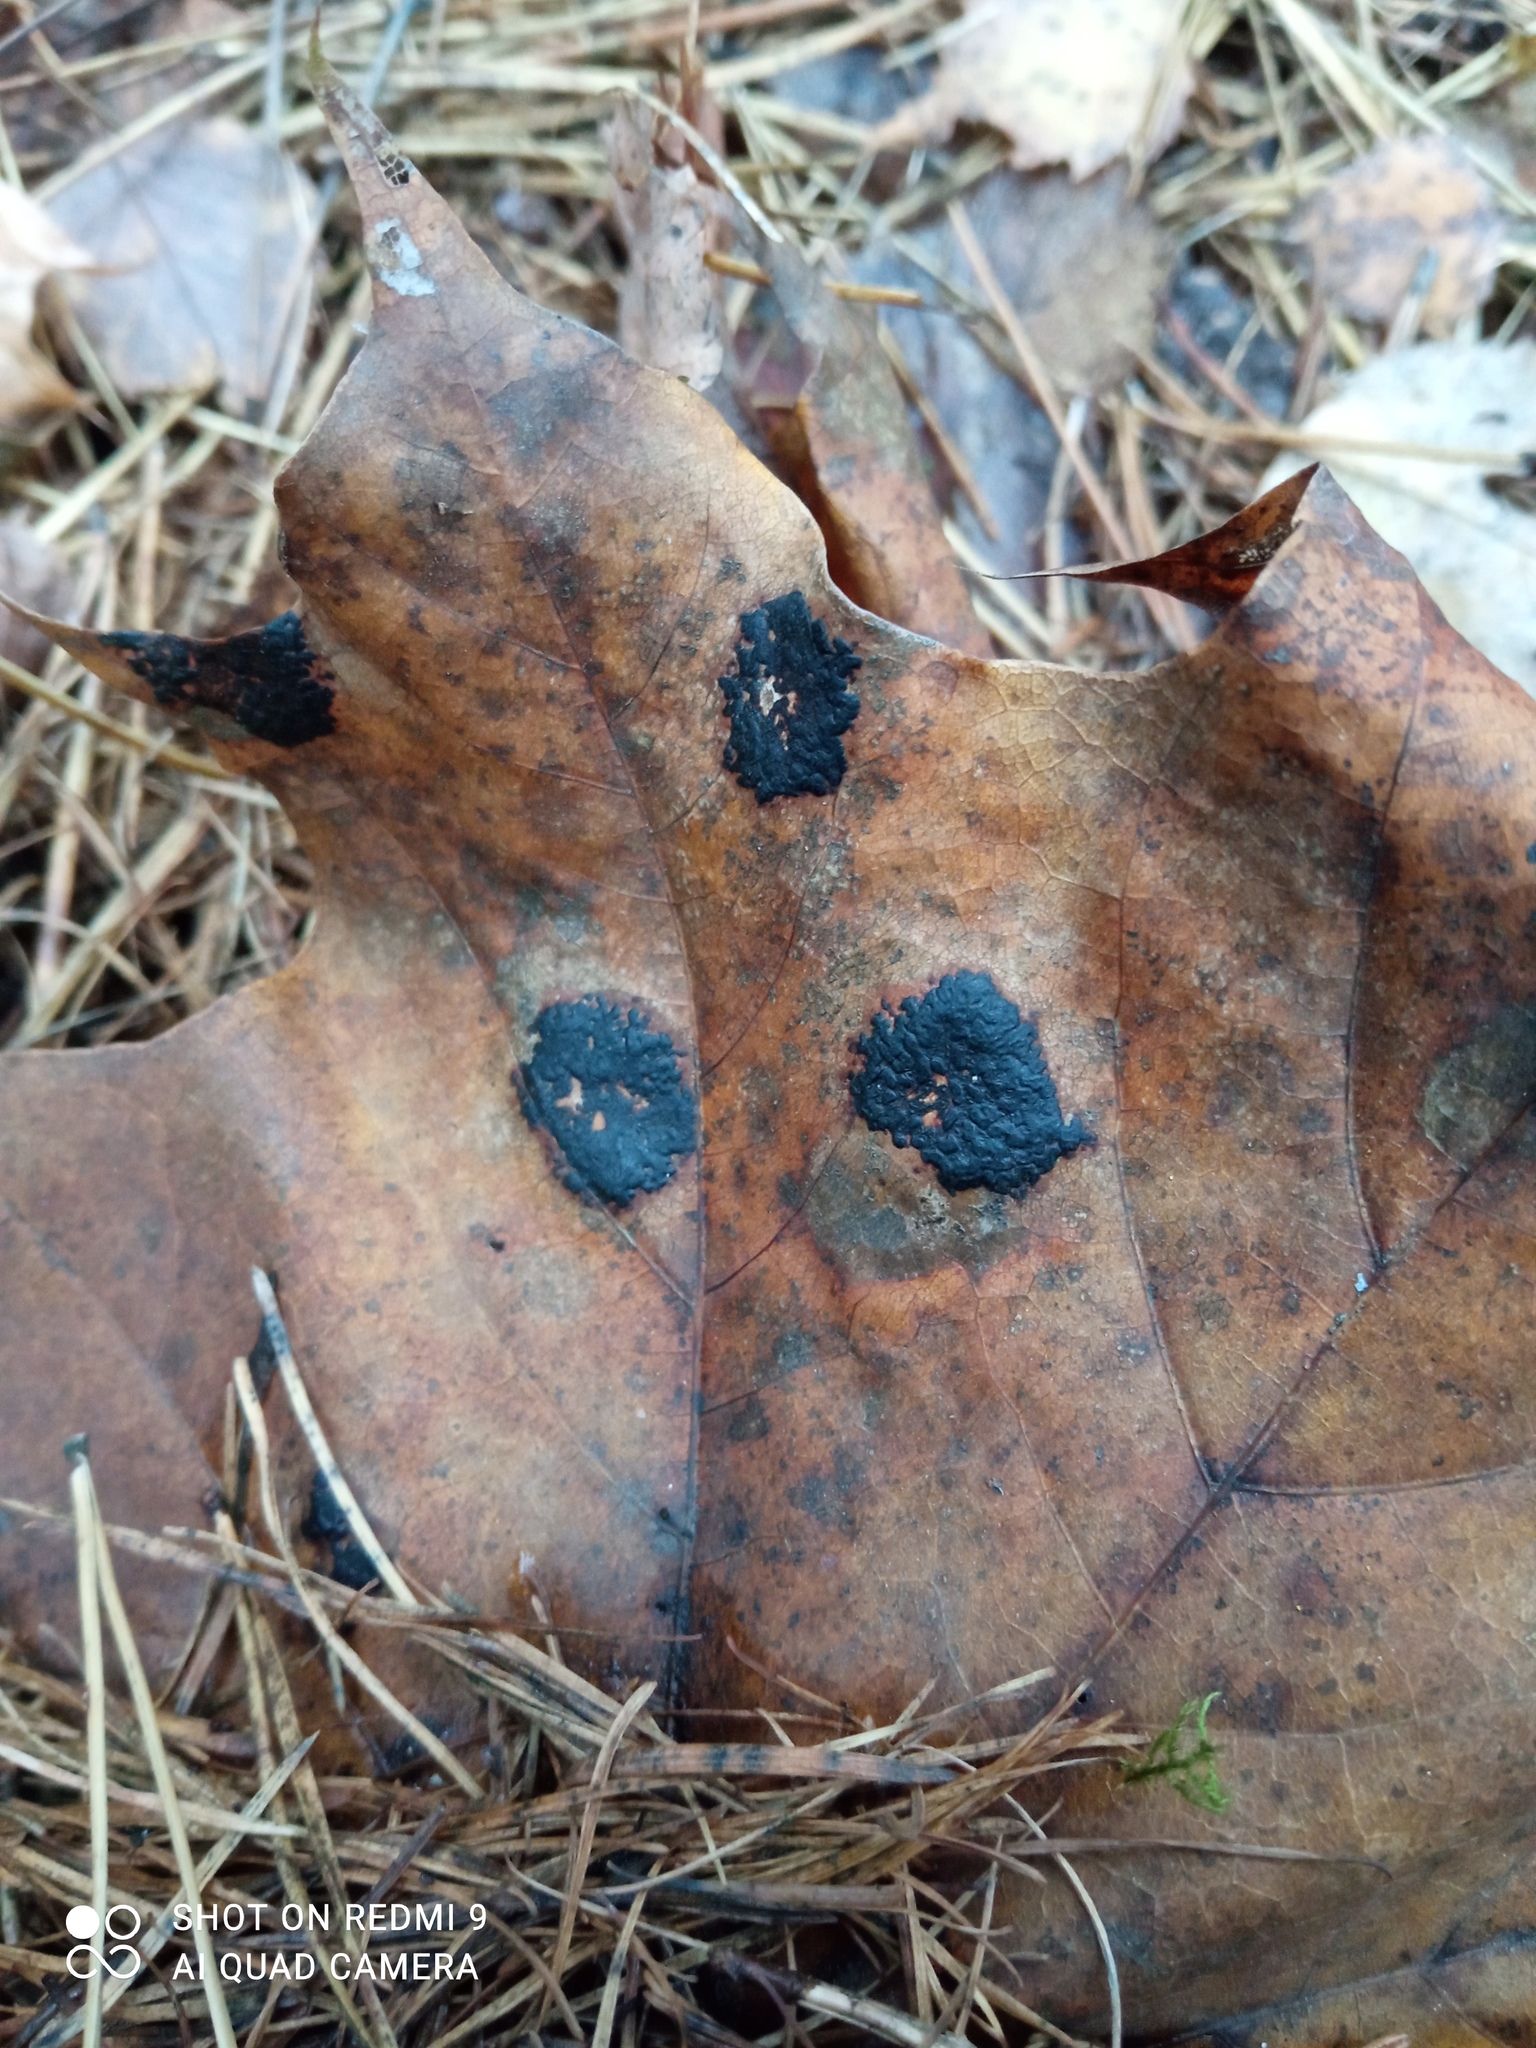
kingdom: Fungi
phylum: Ascomycota
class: Leotiomycetes
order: Rhytismatales
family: Rhytismataceae
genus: Rhytisma
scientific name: Rhytisma acerinum
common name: European tar spot
